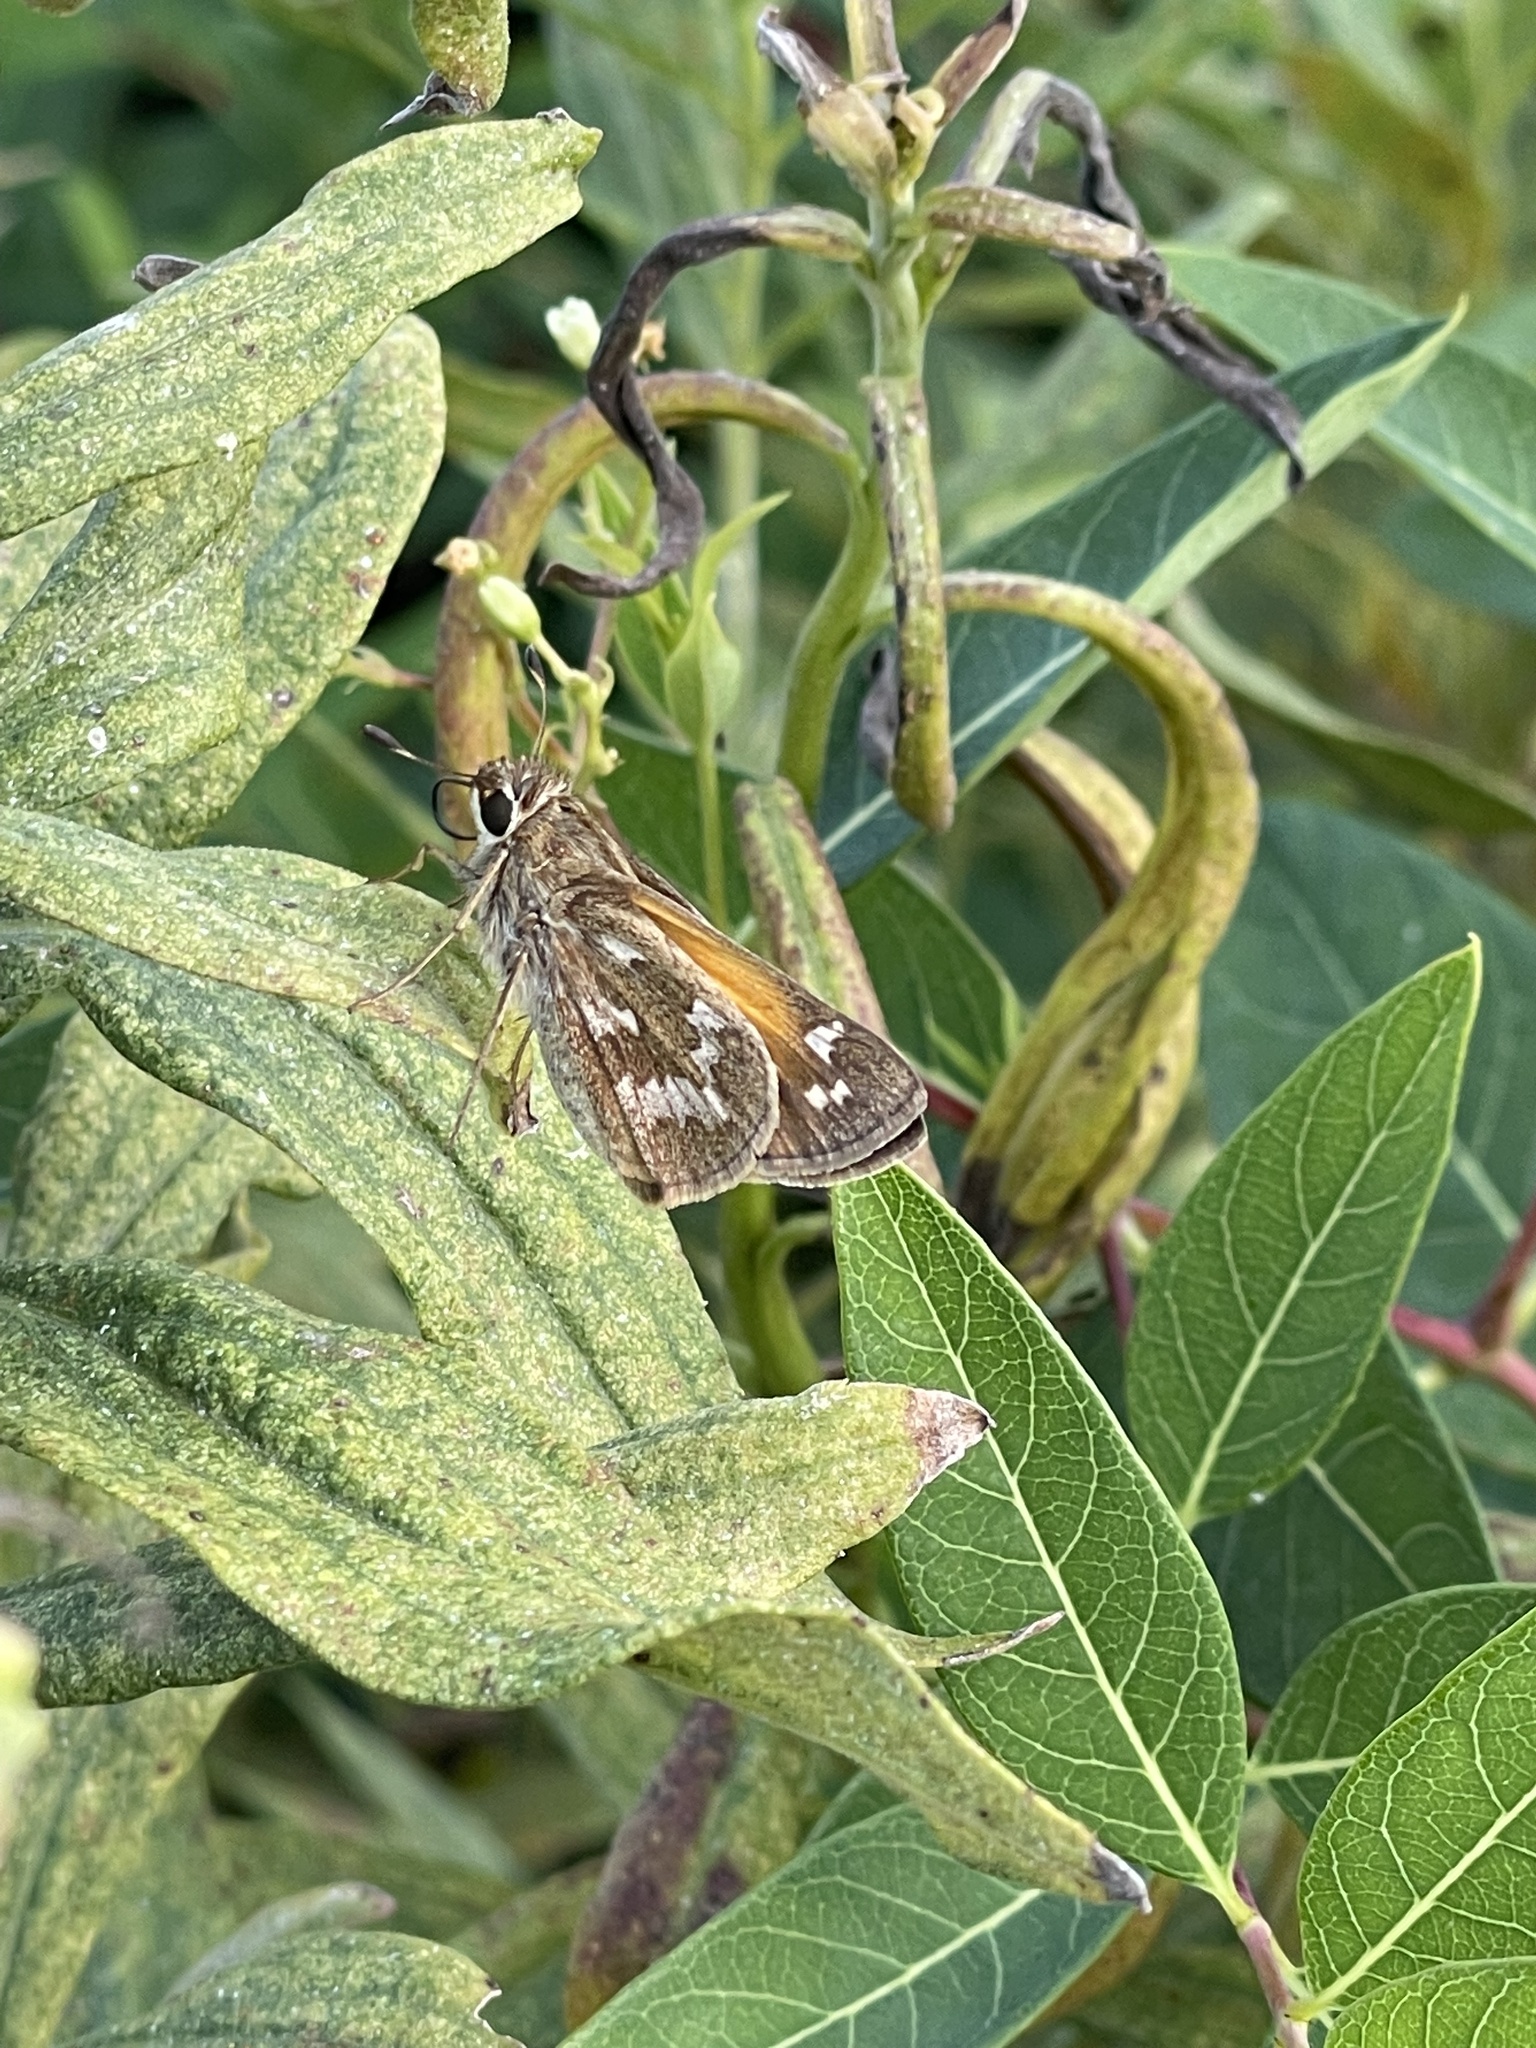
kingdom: Animalia
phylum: Arthropoda
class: Insecta
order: Lepidoptera
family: Hesperiidae
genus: Atalopedes
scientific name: Atalopedes
